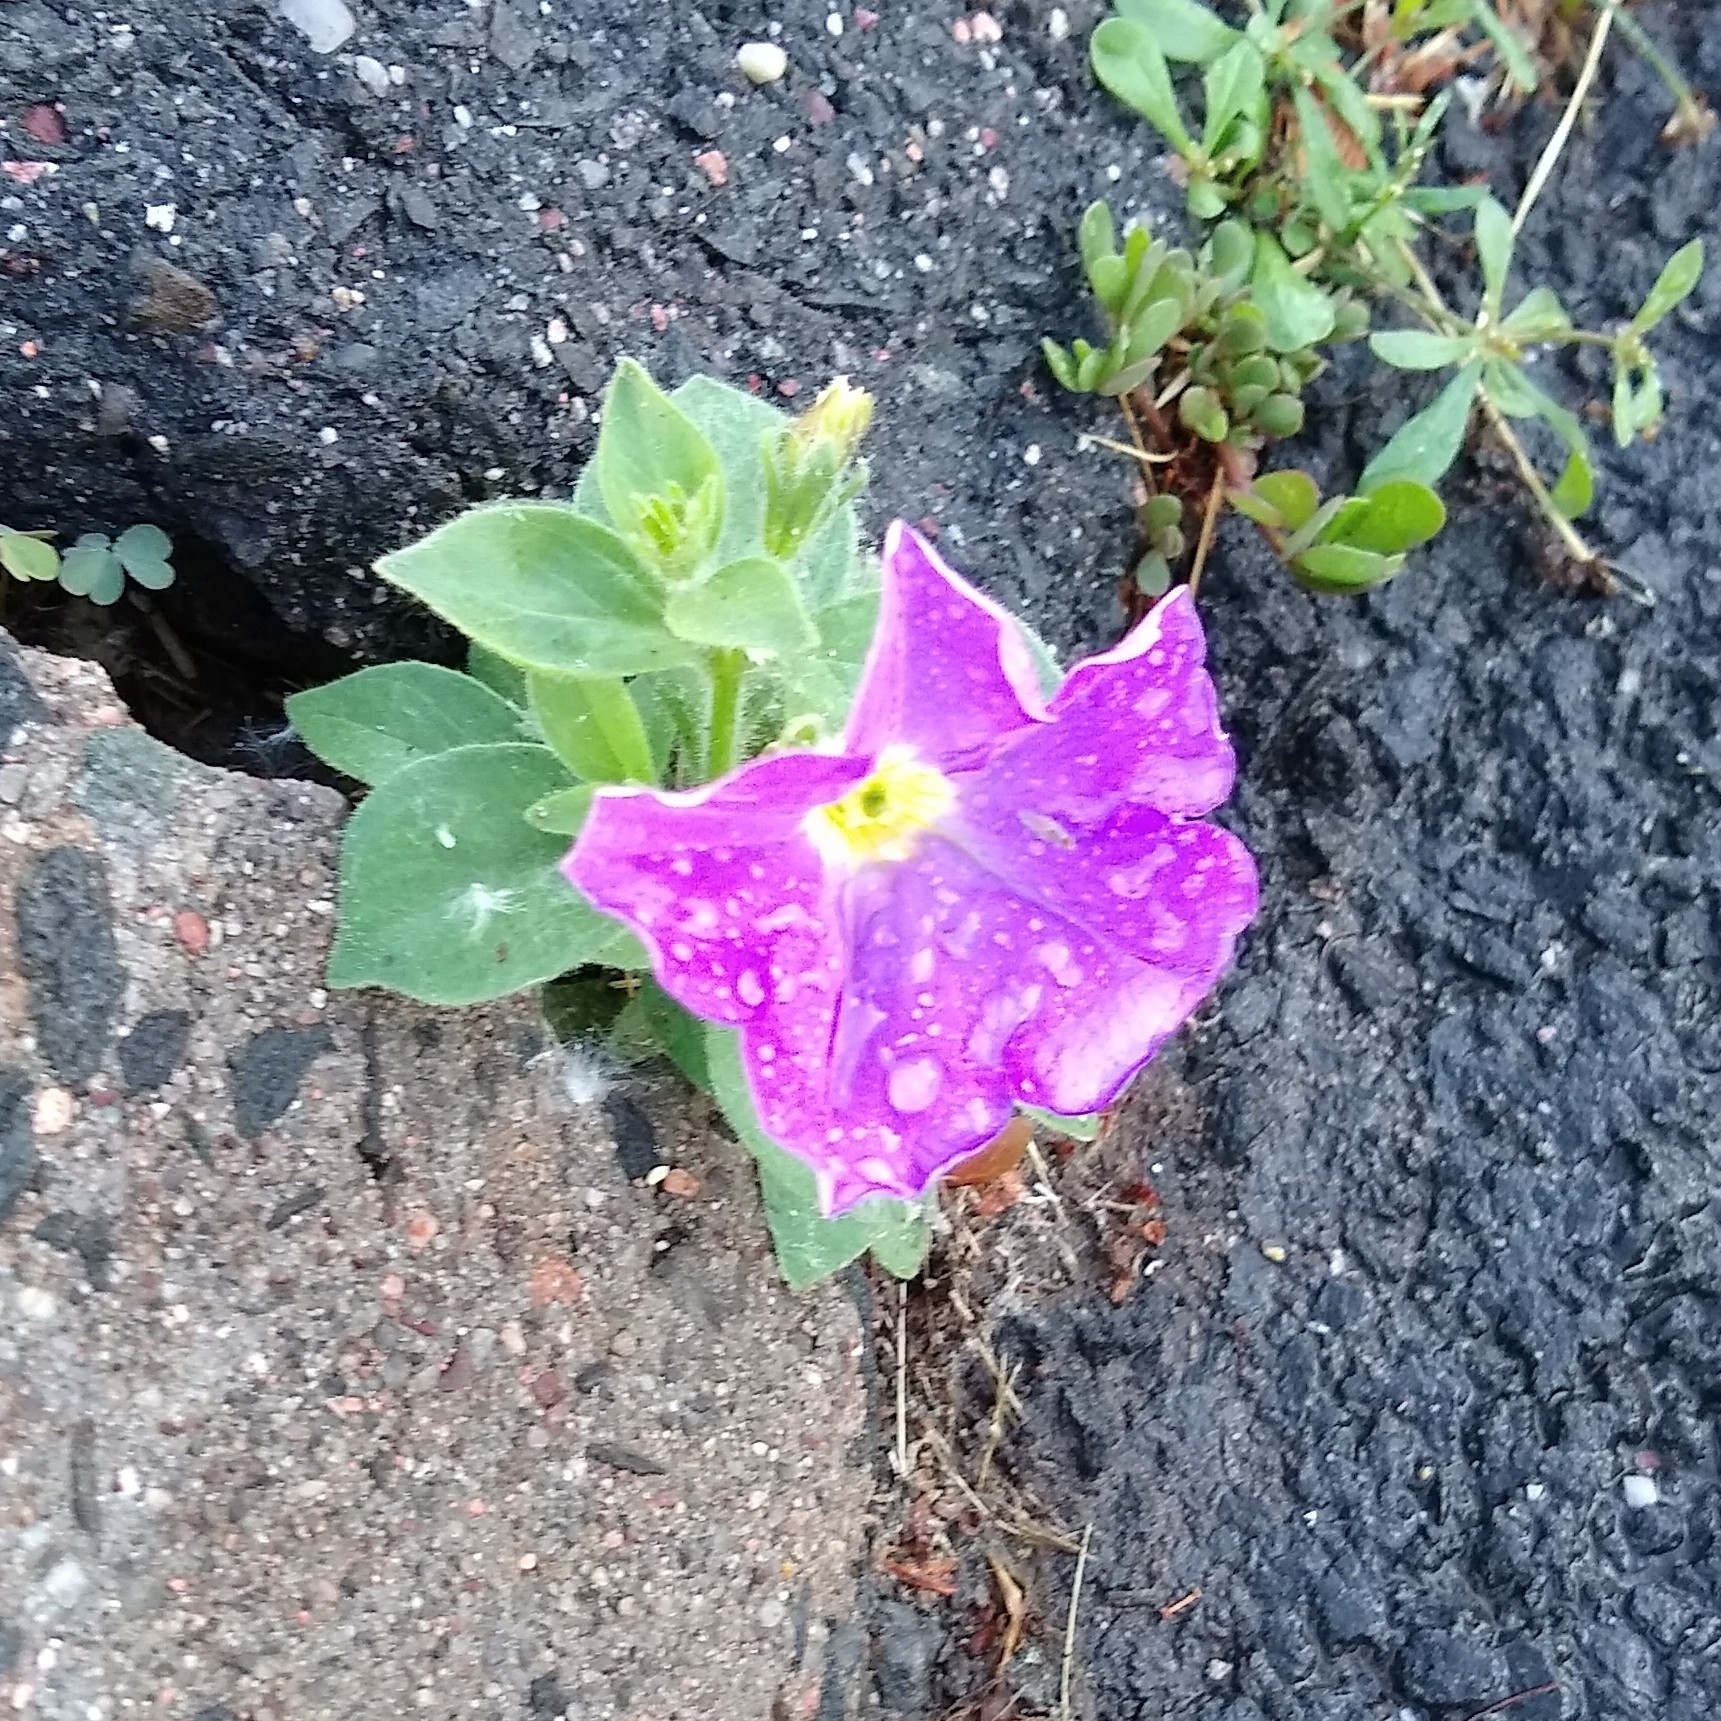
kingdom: Plantae
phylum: Tracheophyta
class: Magnoliopsida
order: Solanales
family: Solanaceae
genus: Petunia
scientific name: Petunia atkinsiana
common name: Petunia
